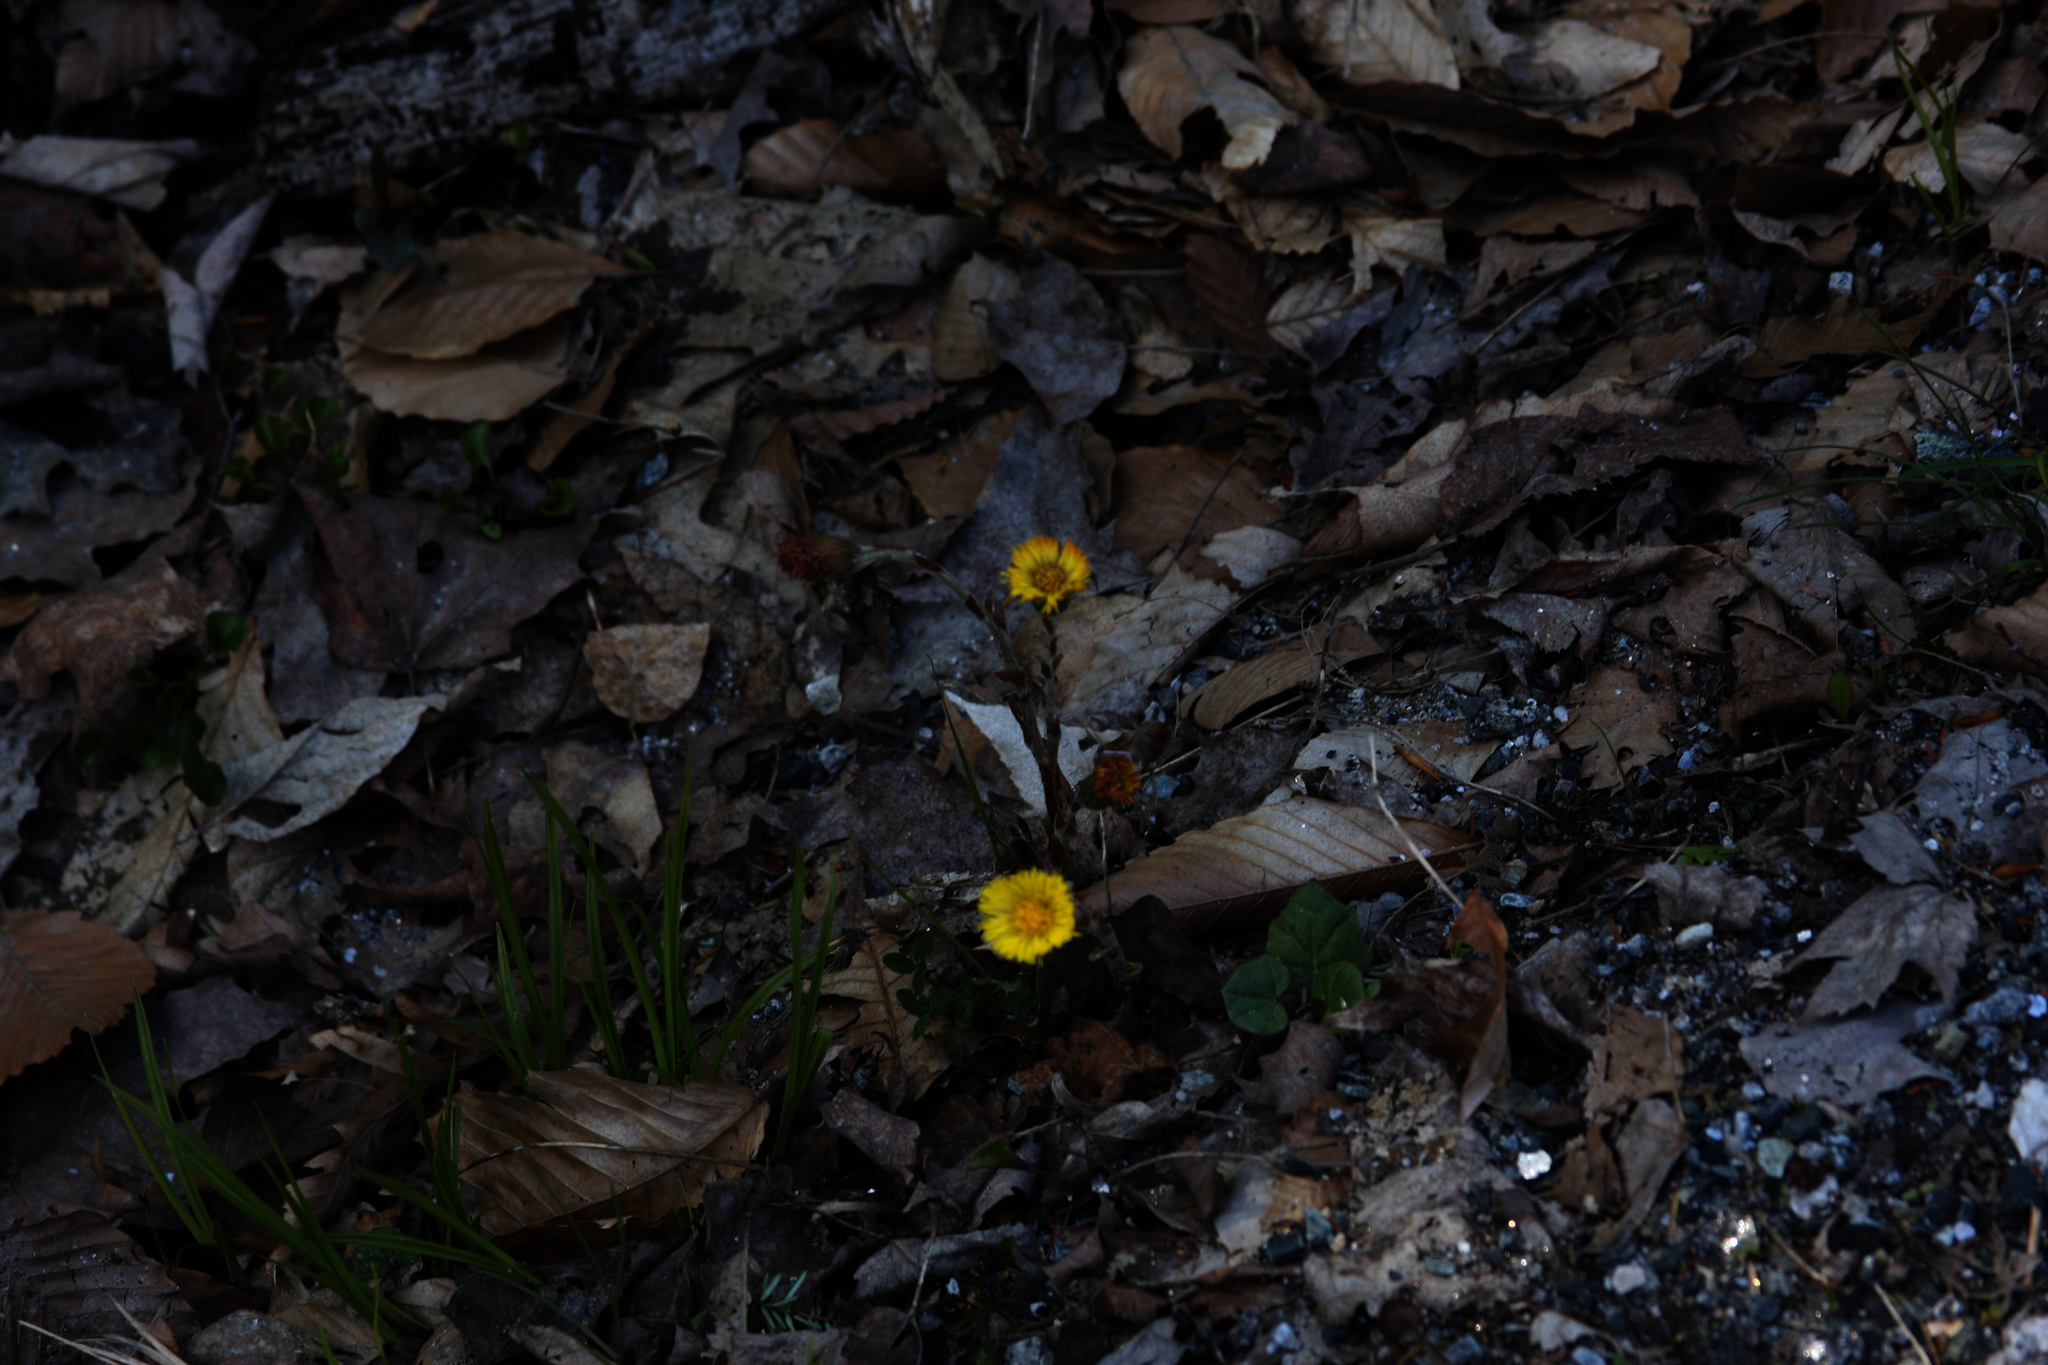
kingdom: Plantae
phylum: Tracheophyta
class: Magnoliopsida
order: Asterales
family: Asteraceae
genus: Tussilago
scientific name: Tussilago farfara
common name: Coltsfoot
